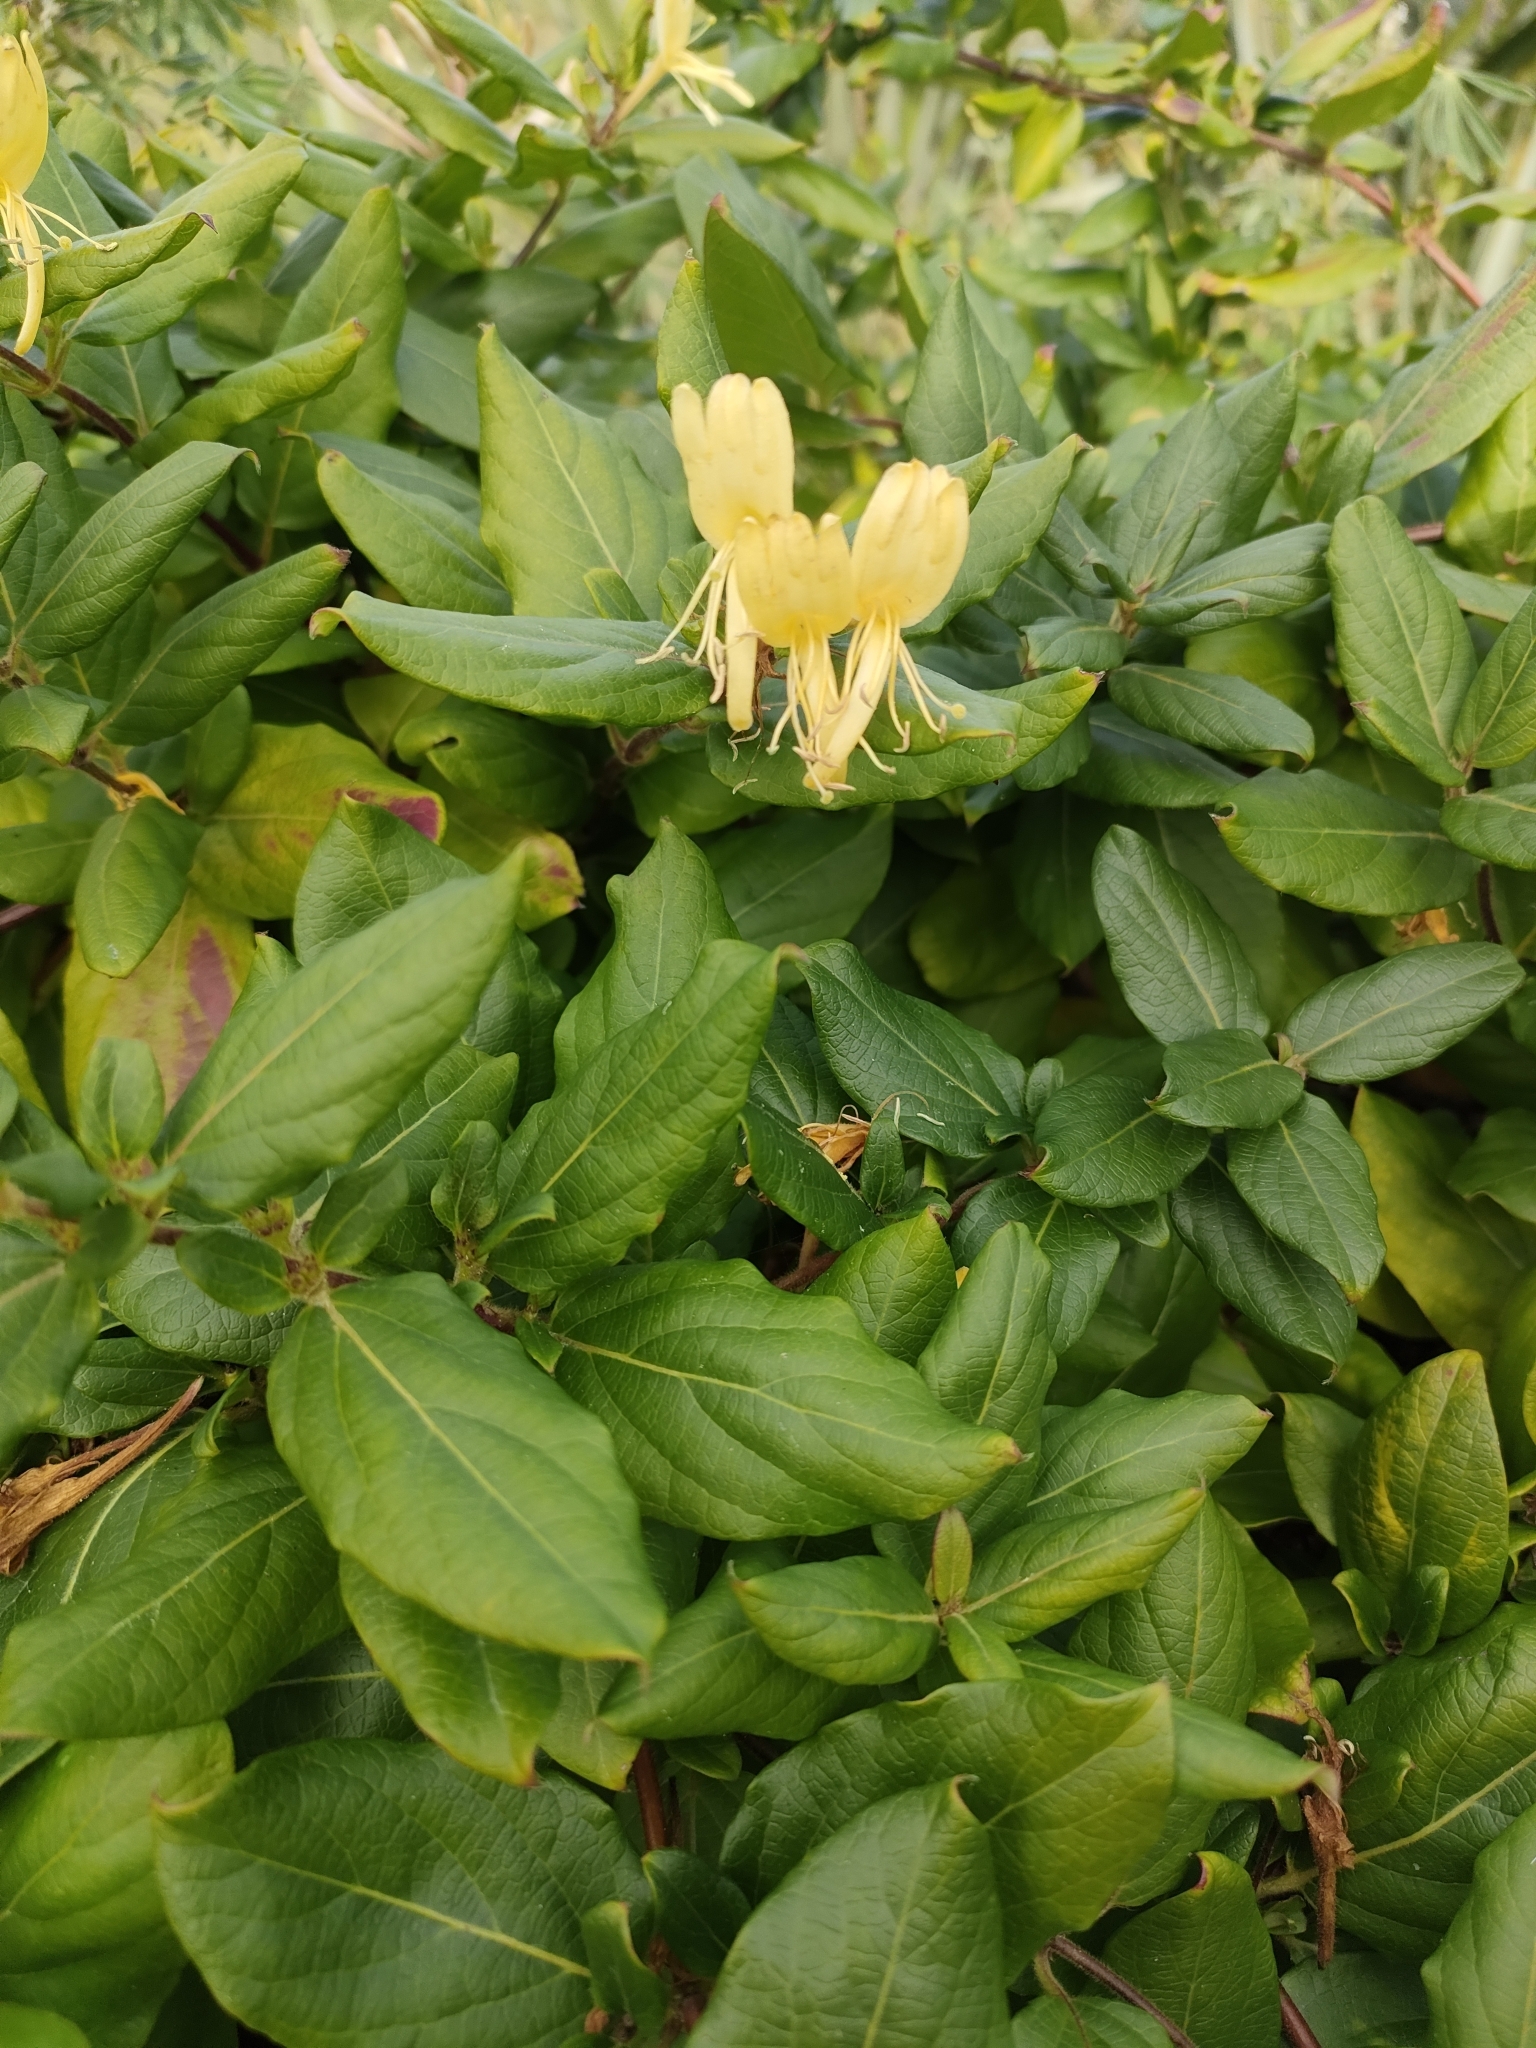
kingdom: Plantae
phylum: Tracheophyta
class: Magnoliopsida
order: Dipsacales
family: Caprifoliaceae
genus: Lonicera
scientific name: Lonicera japonica
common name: Japanese honeysuckle
